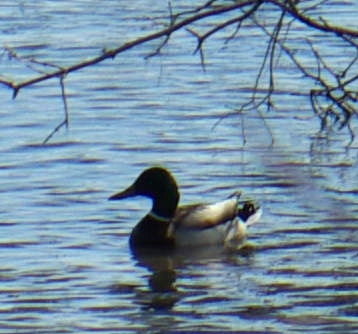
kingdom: Animalia
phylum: Chordata
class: Aves
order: Anseriformes
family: Anatidae
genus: Anas
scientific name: Anas platyrhynchos
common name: Mallard
